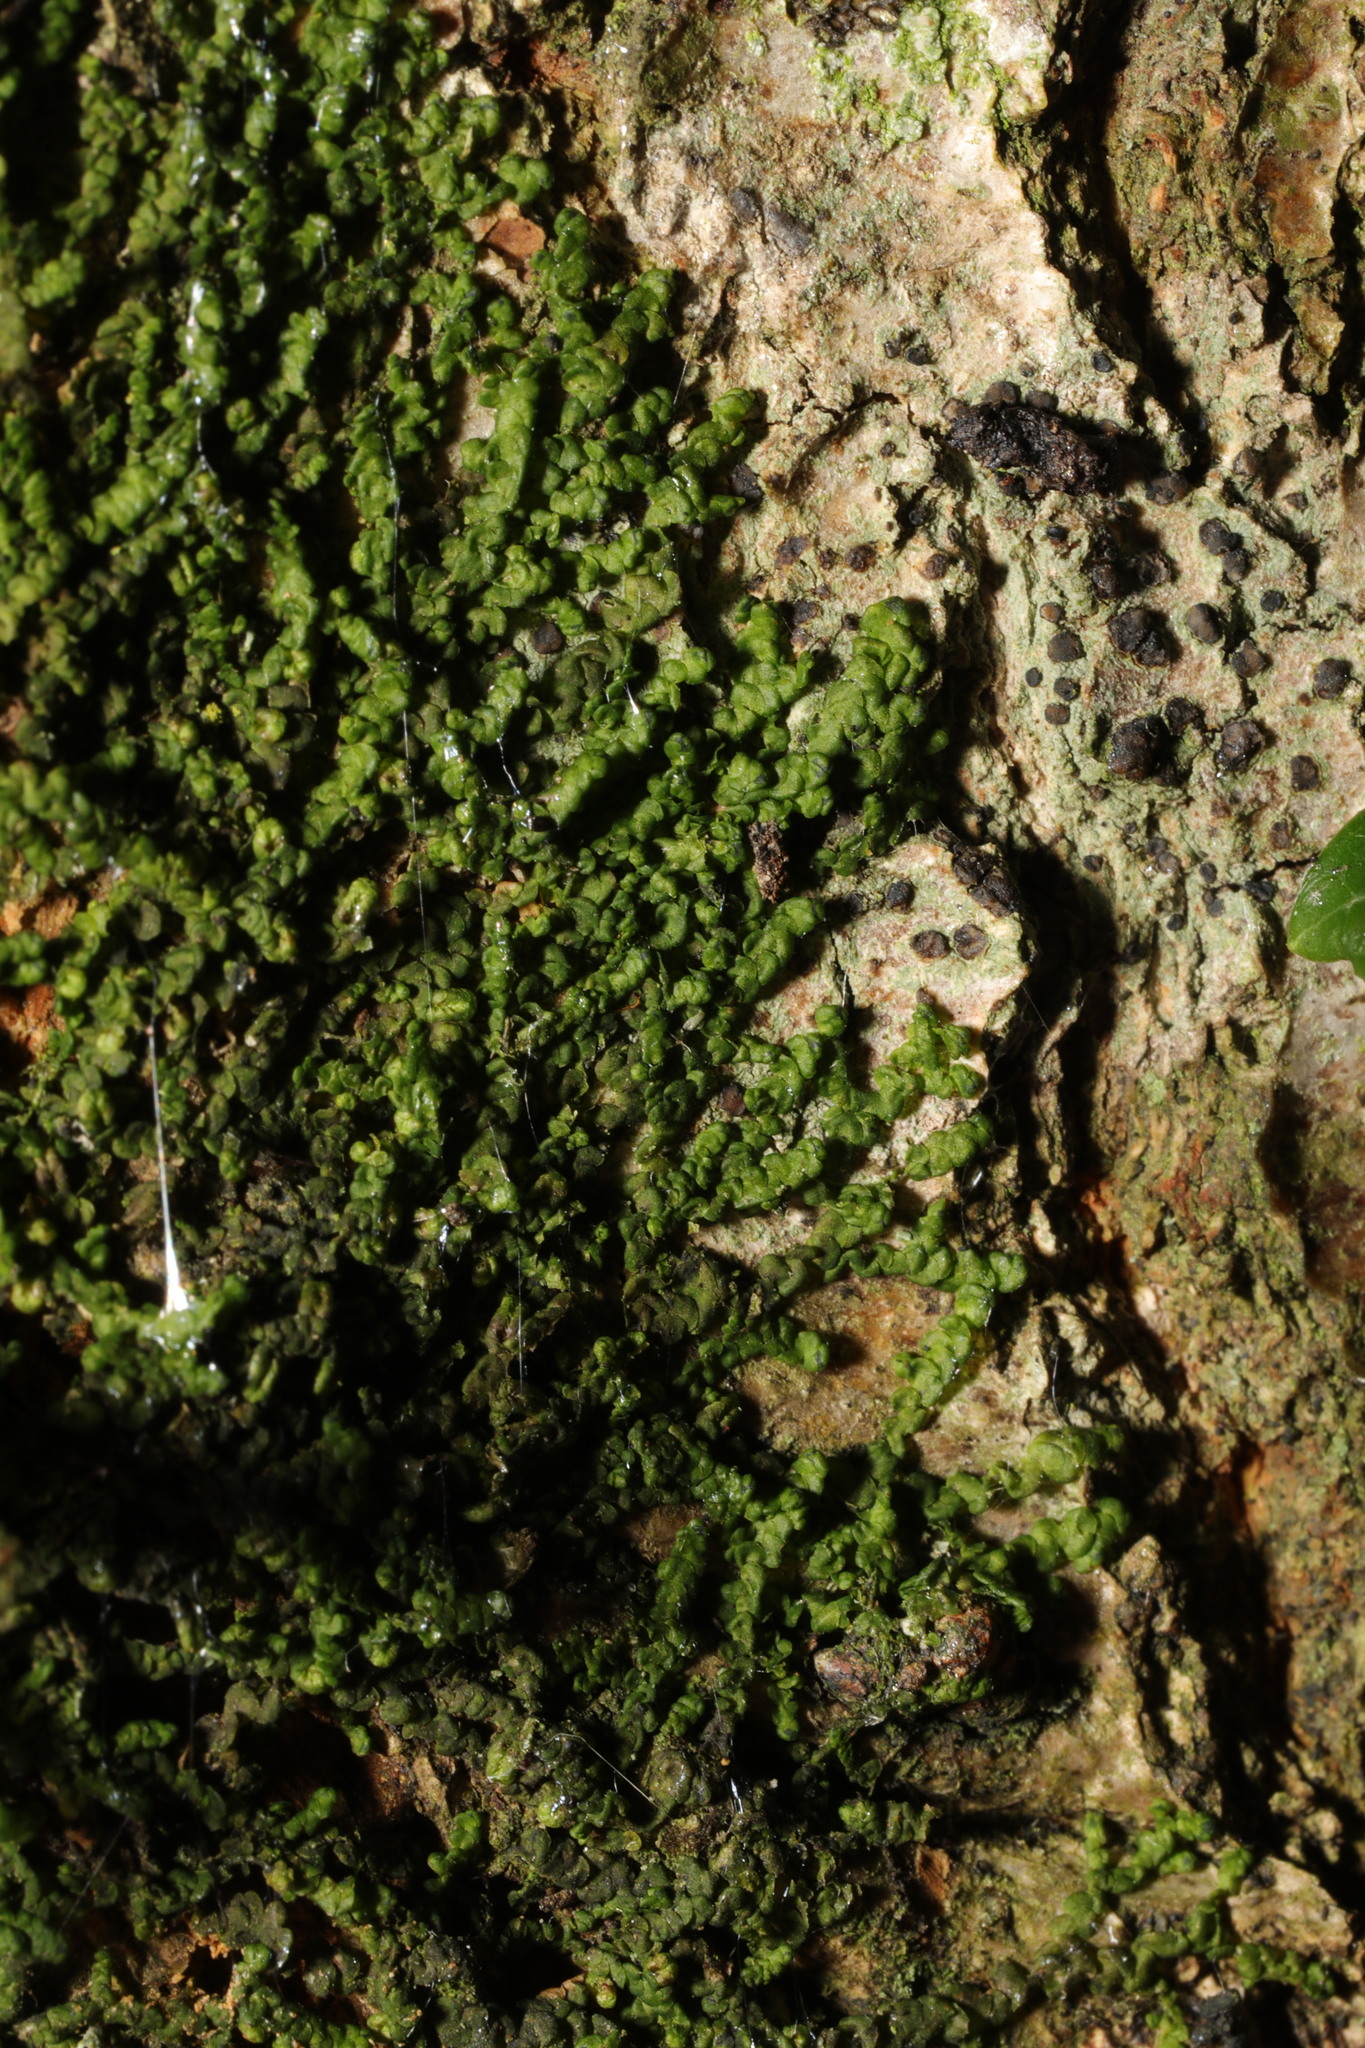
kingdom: Plantae
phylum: Marchantiophyta
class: Jungermanniopsida
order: Porellales
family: Frullaniaceae
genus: Frullania
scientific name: Frullania dilatata
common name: Dilated scalewort
